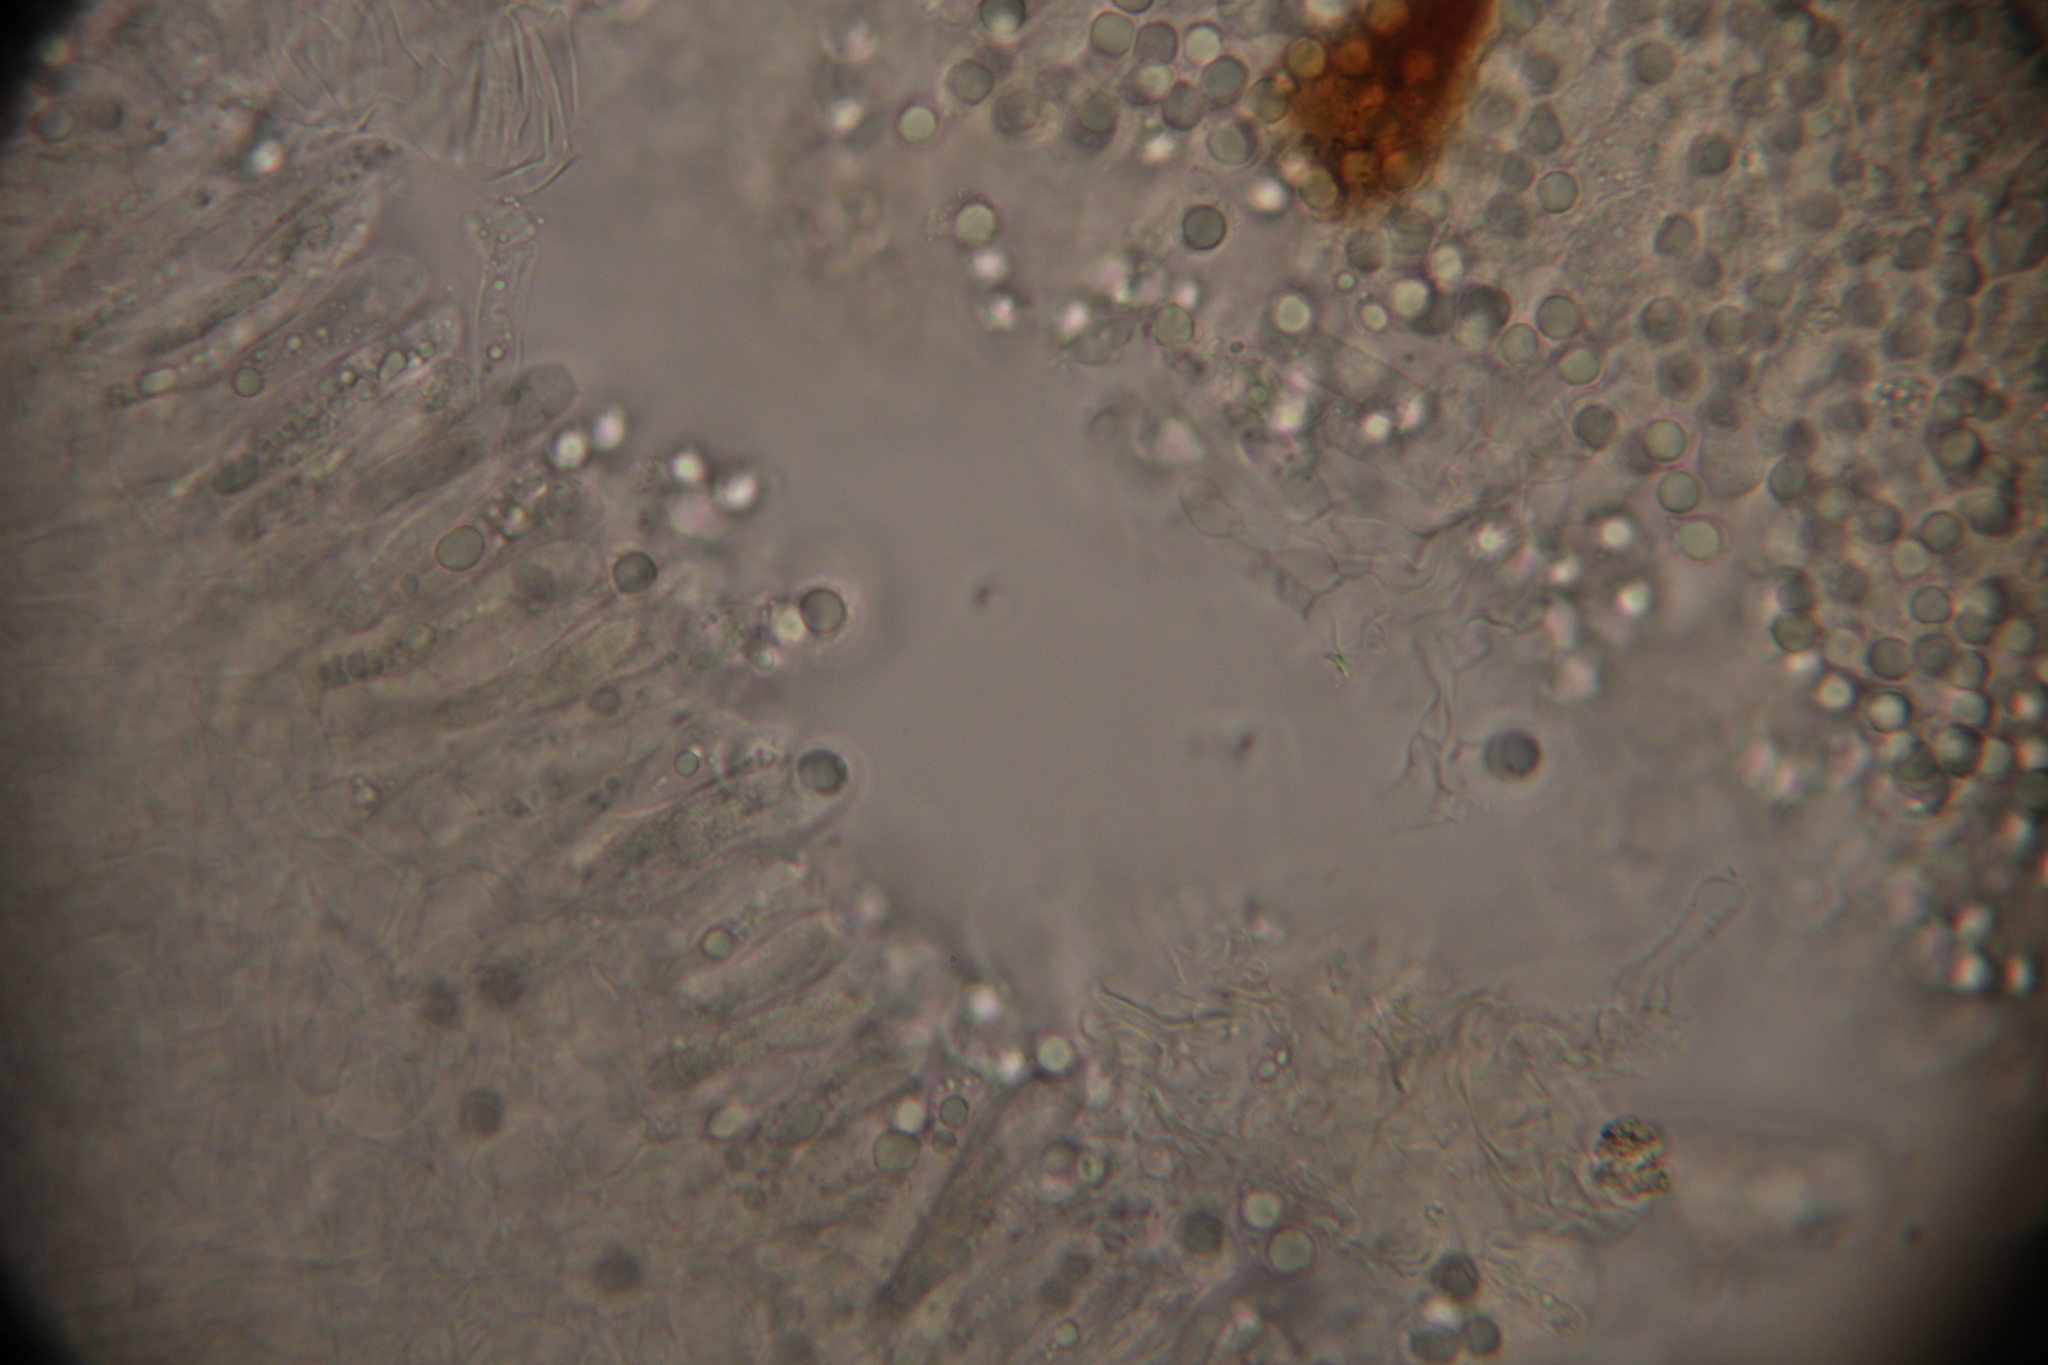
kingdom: Fungi
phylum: Basidiomycota
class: Agaricomycetes
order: Russulales
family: Russulaceae
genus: Russula
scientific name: Russula brunneola
